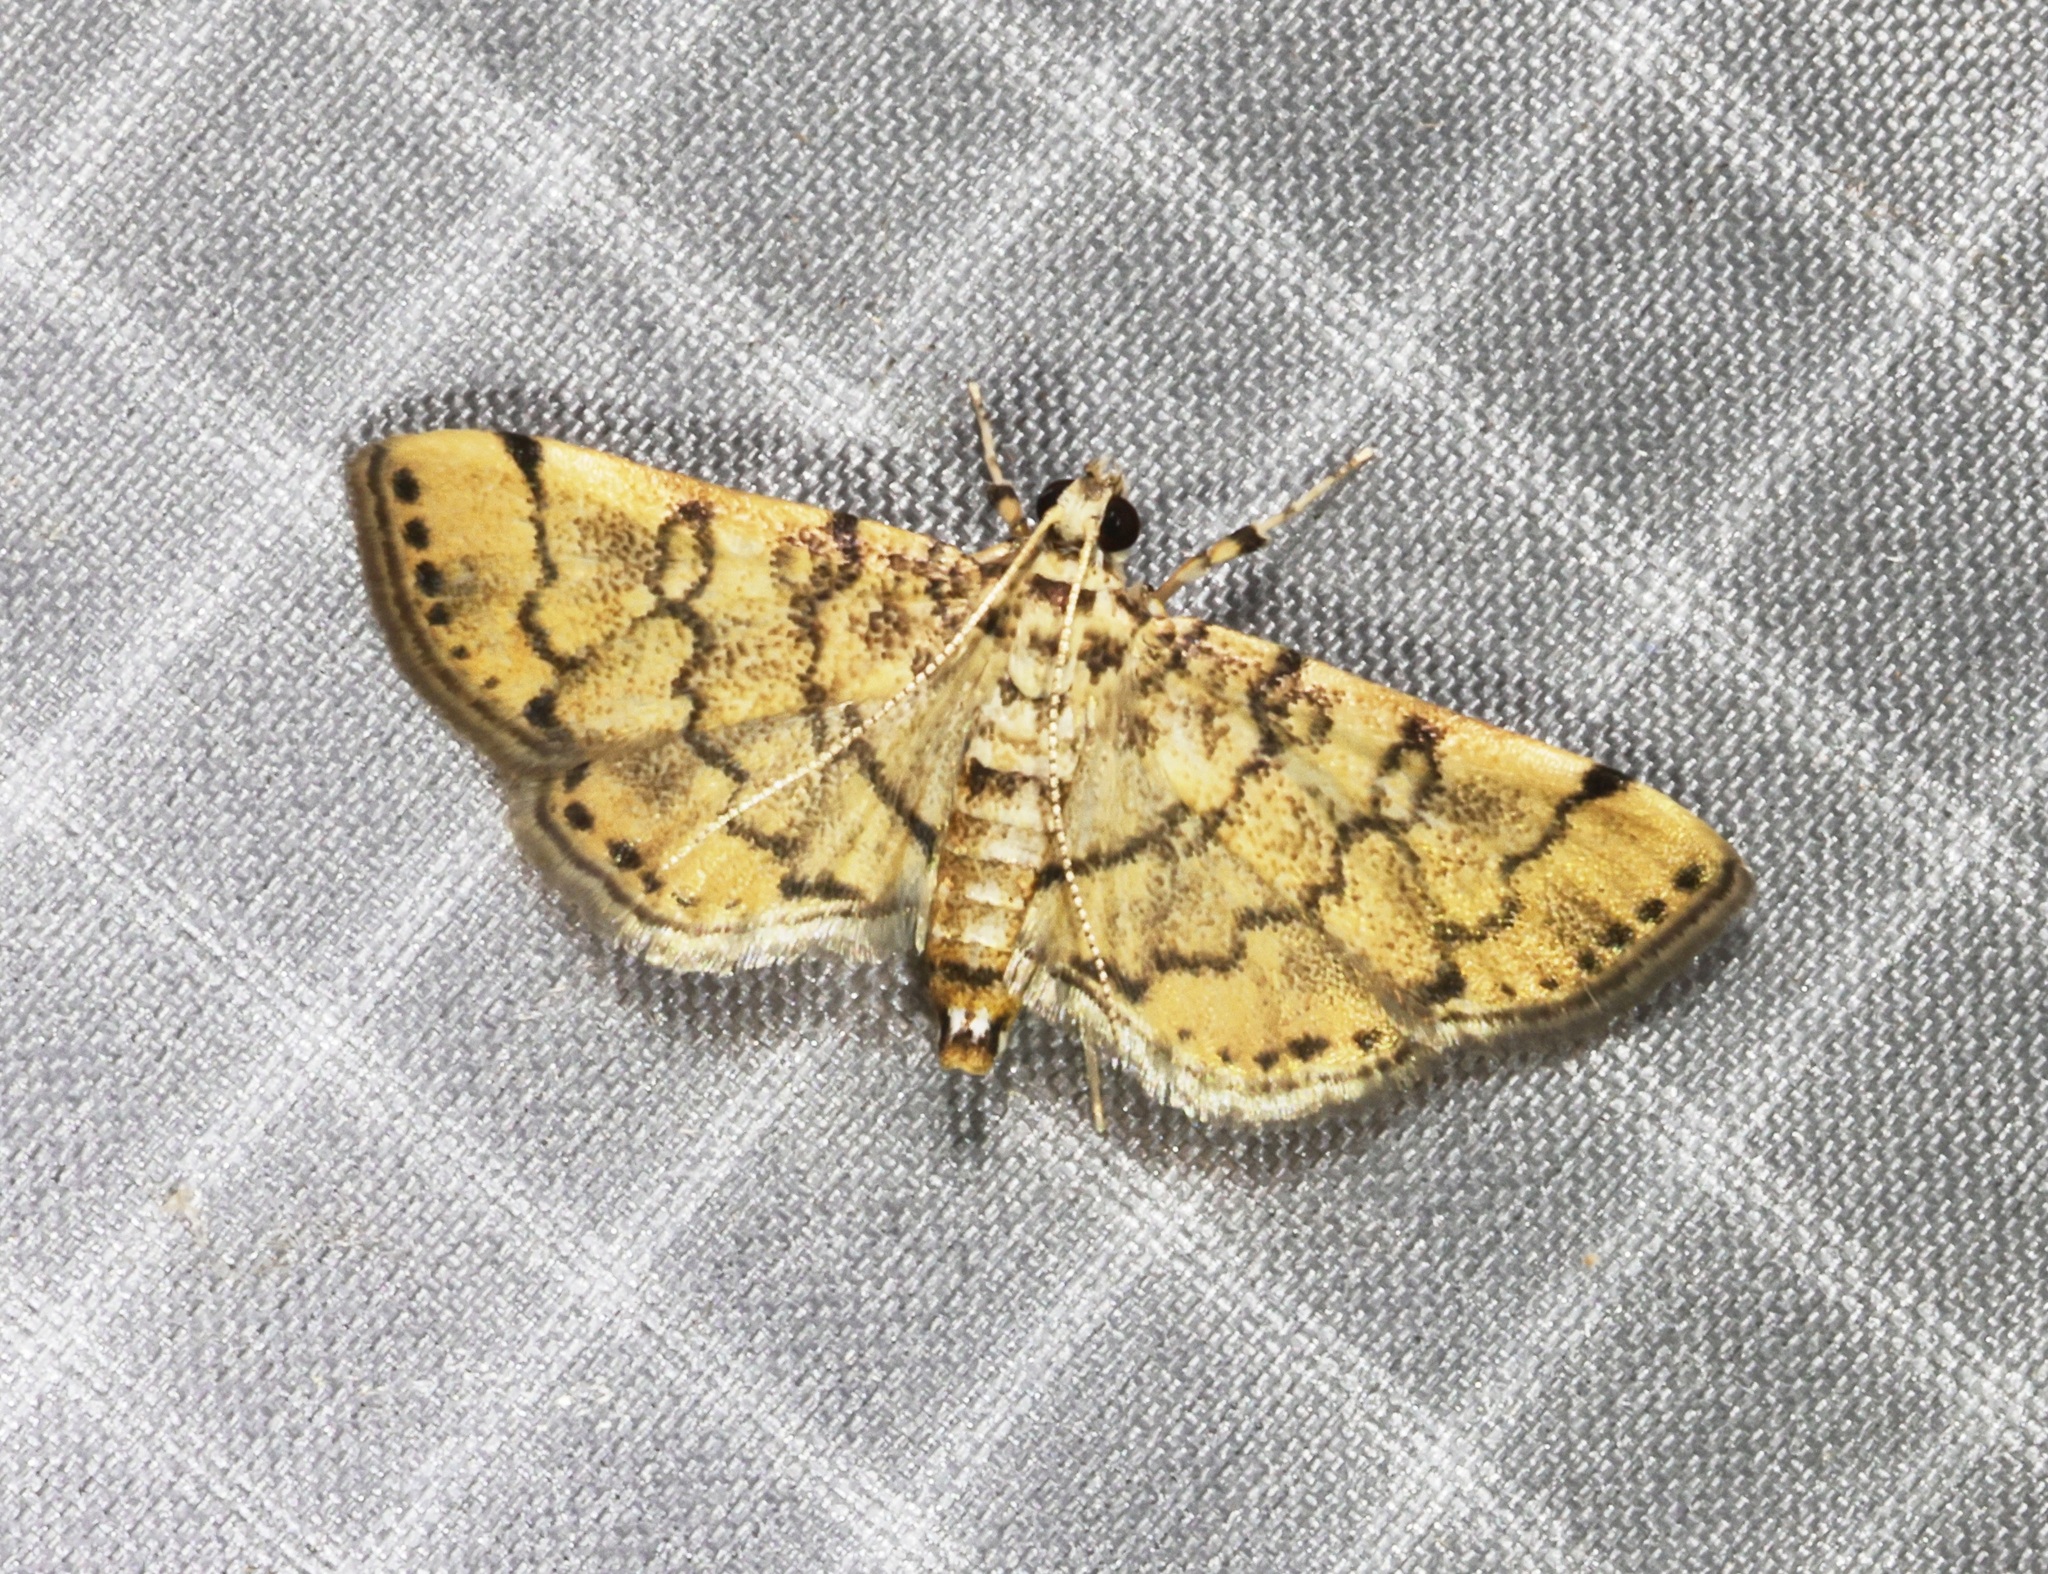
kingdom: Animalia
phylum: Arthropoda
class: Insecta
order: Lepidoptera
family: Crambidae
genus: Lamprosema
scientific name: Lamprosema tampiusalis
